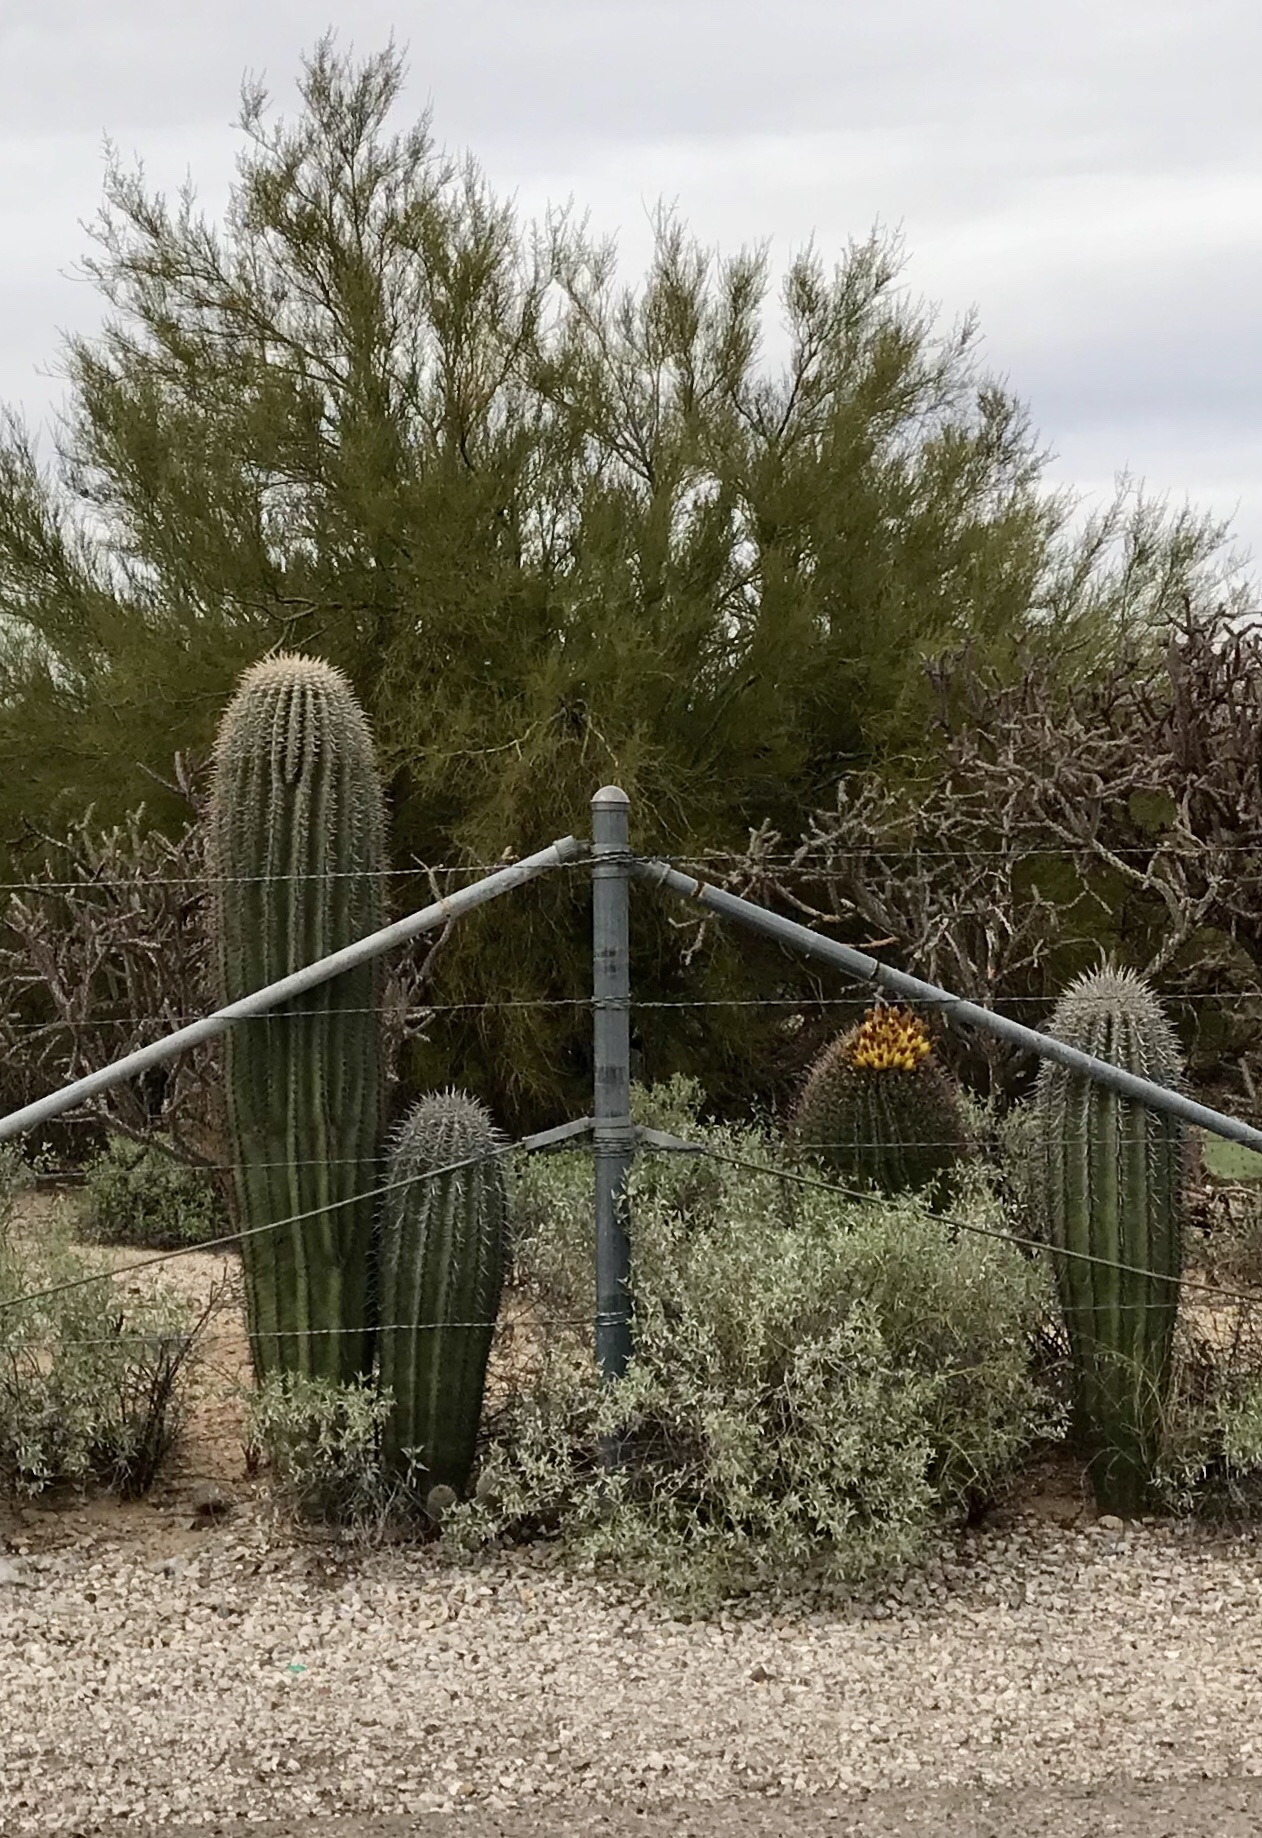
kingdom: Plantae
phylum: Tracheophyta
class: Magnoliopsida
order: Caryophyllales
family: Cactaceae
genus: Carnegiea
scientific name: Carnegiea gigantea
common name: Saguaro
